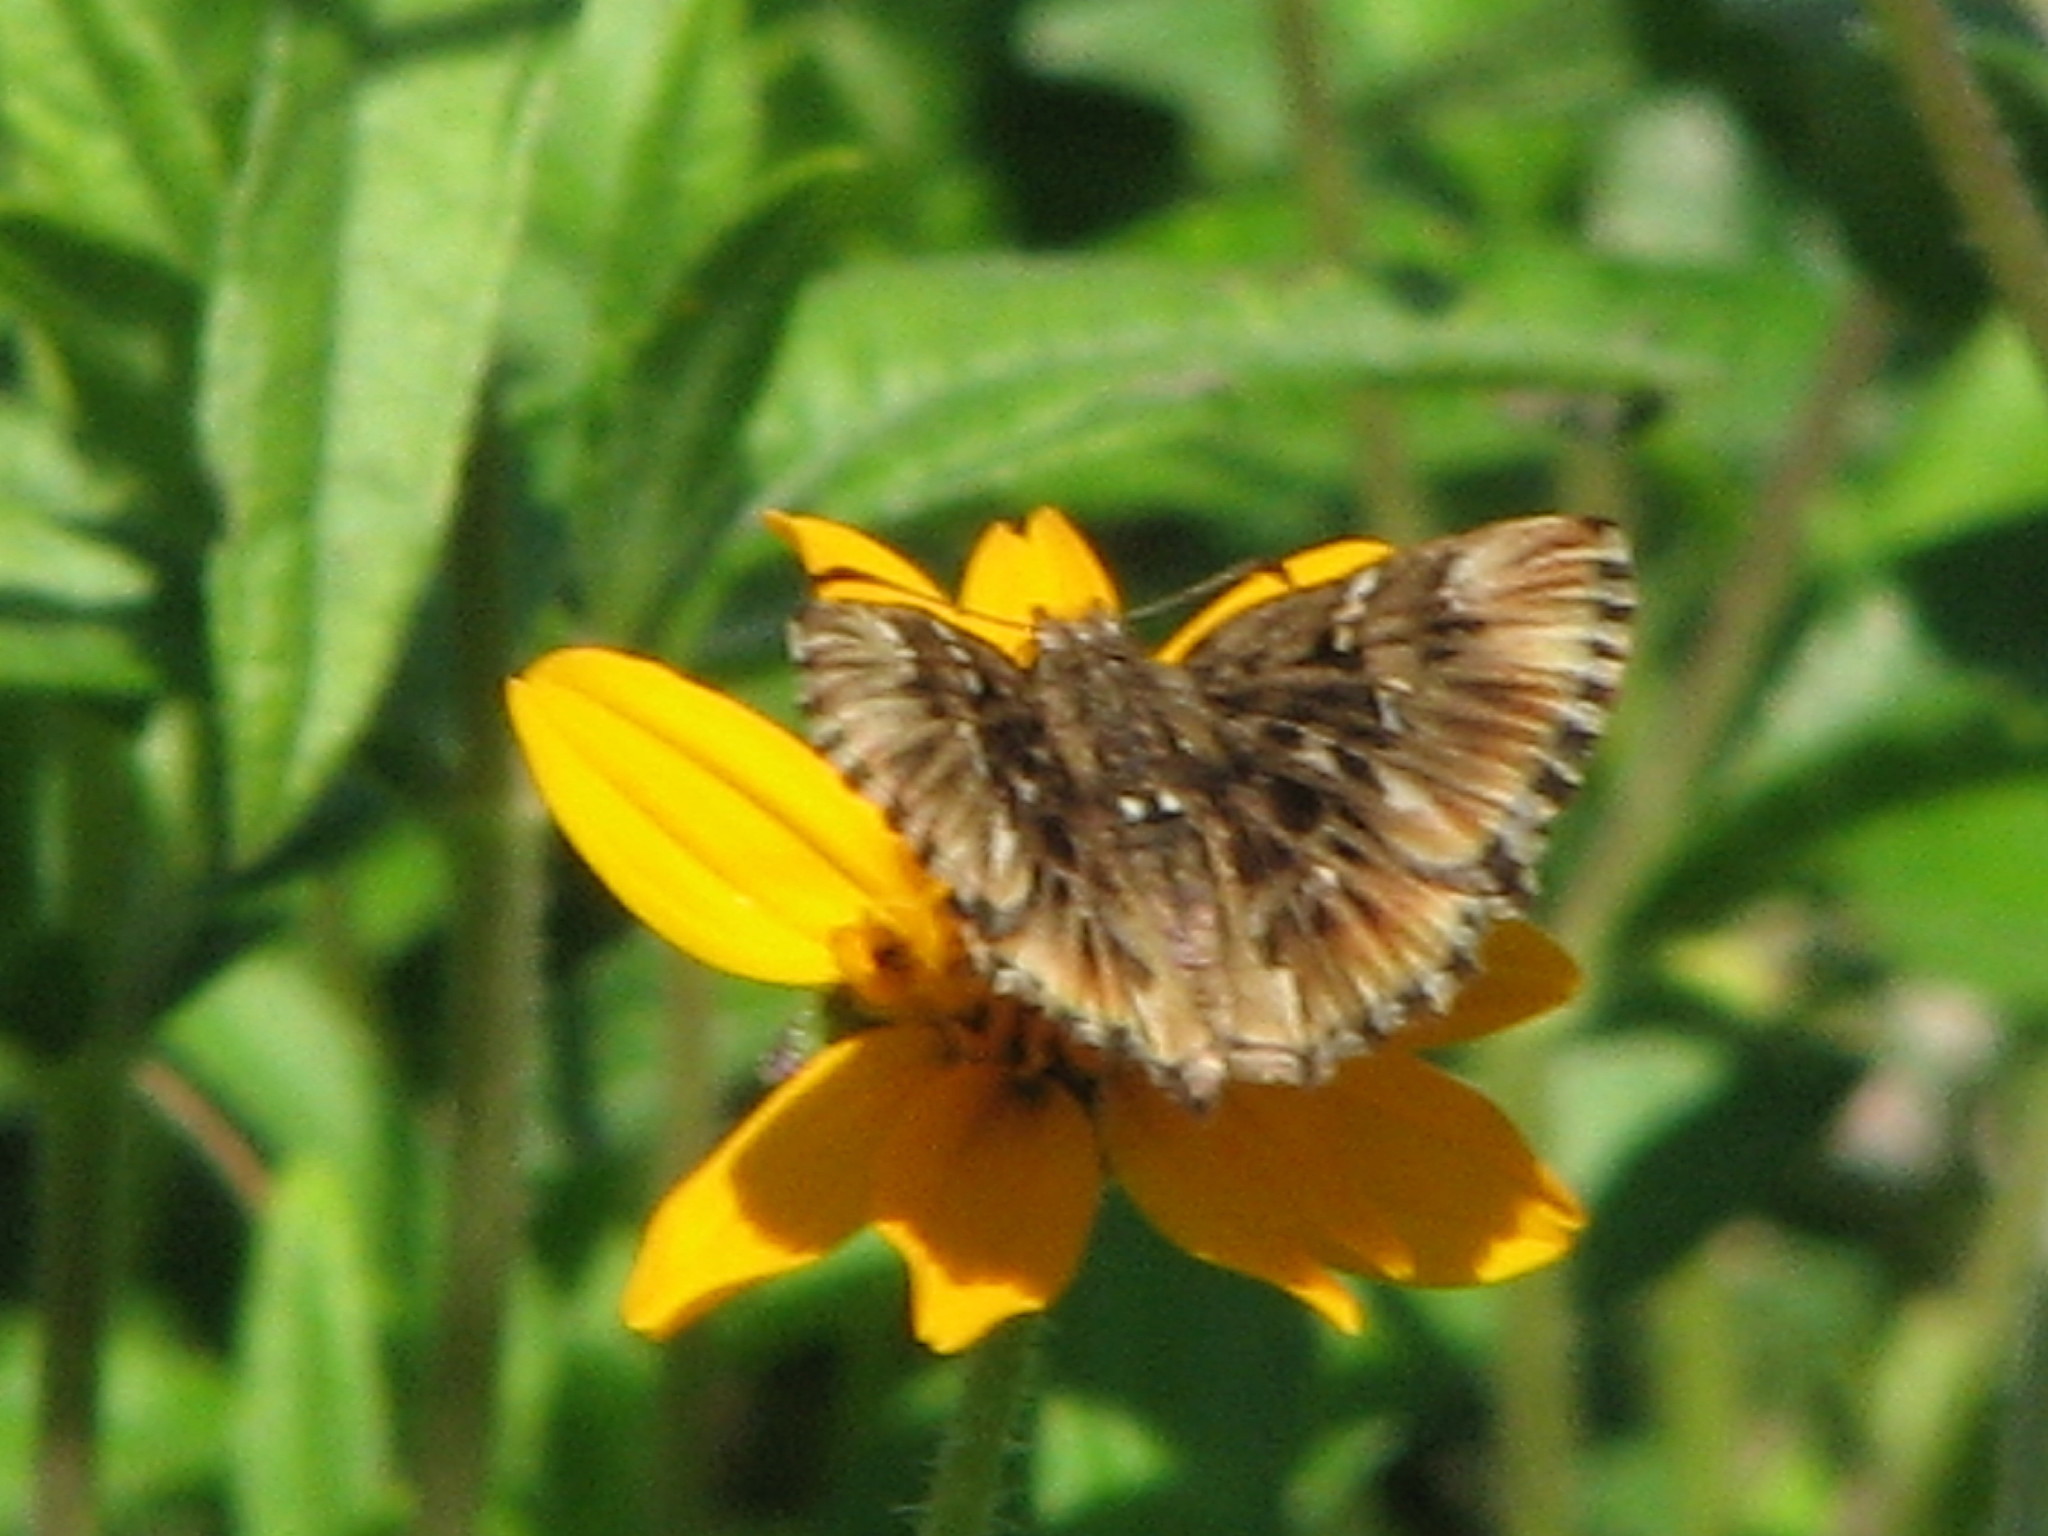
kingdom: Animalia
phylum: Arthropoda
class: Insecta
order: Lepidoptera
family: Hesperiidae
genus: Celotes
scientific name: Celotes nessus
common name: Common streaky-skipper
